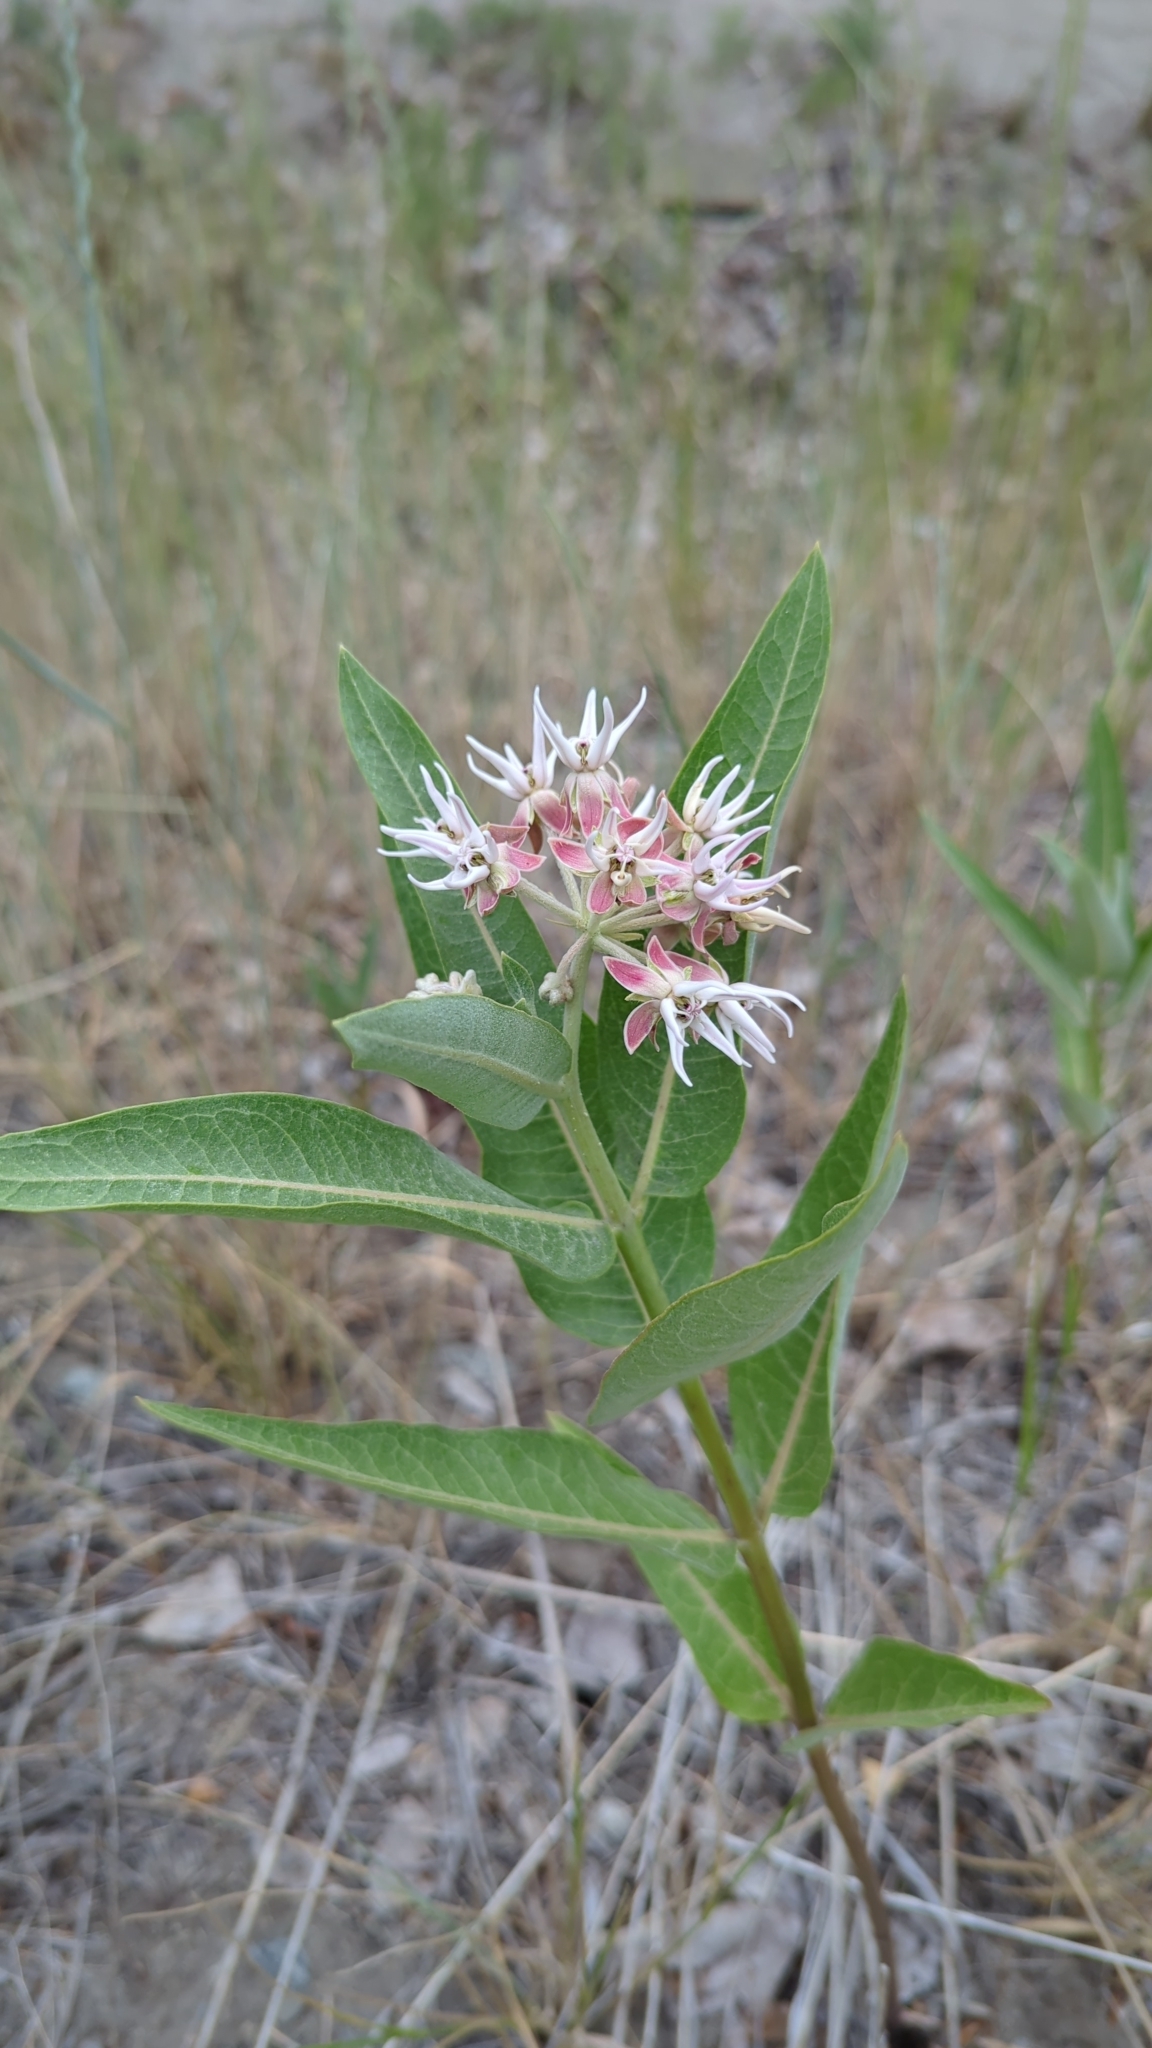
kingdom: Plantae
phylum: Tracheophyta
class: Magnoliopsida
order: Gentianales
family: Apocynaceae
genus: Asclepias
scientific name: Asclepias speciosa
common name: Showy milkweed
